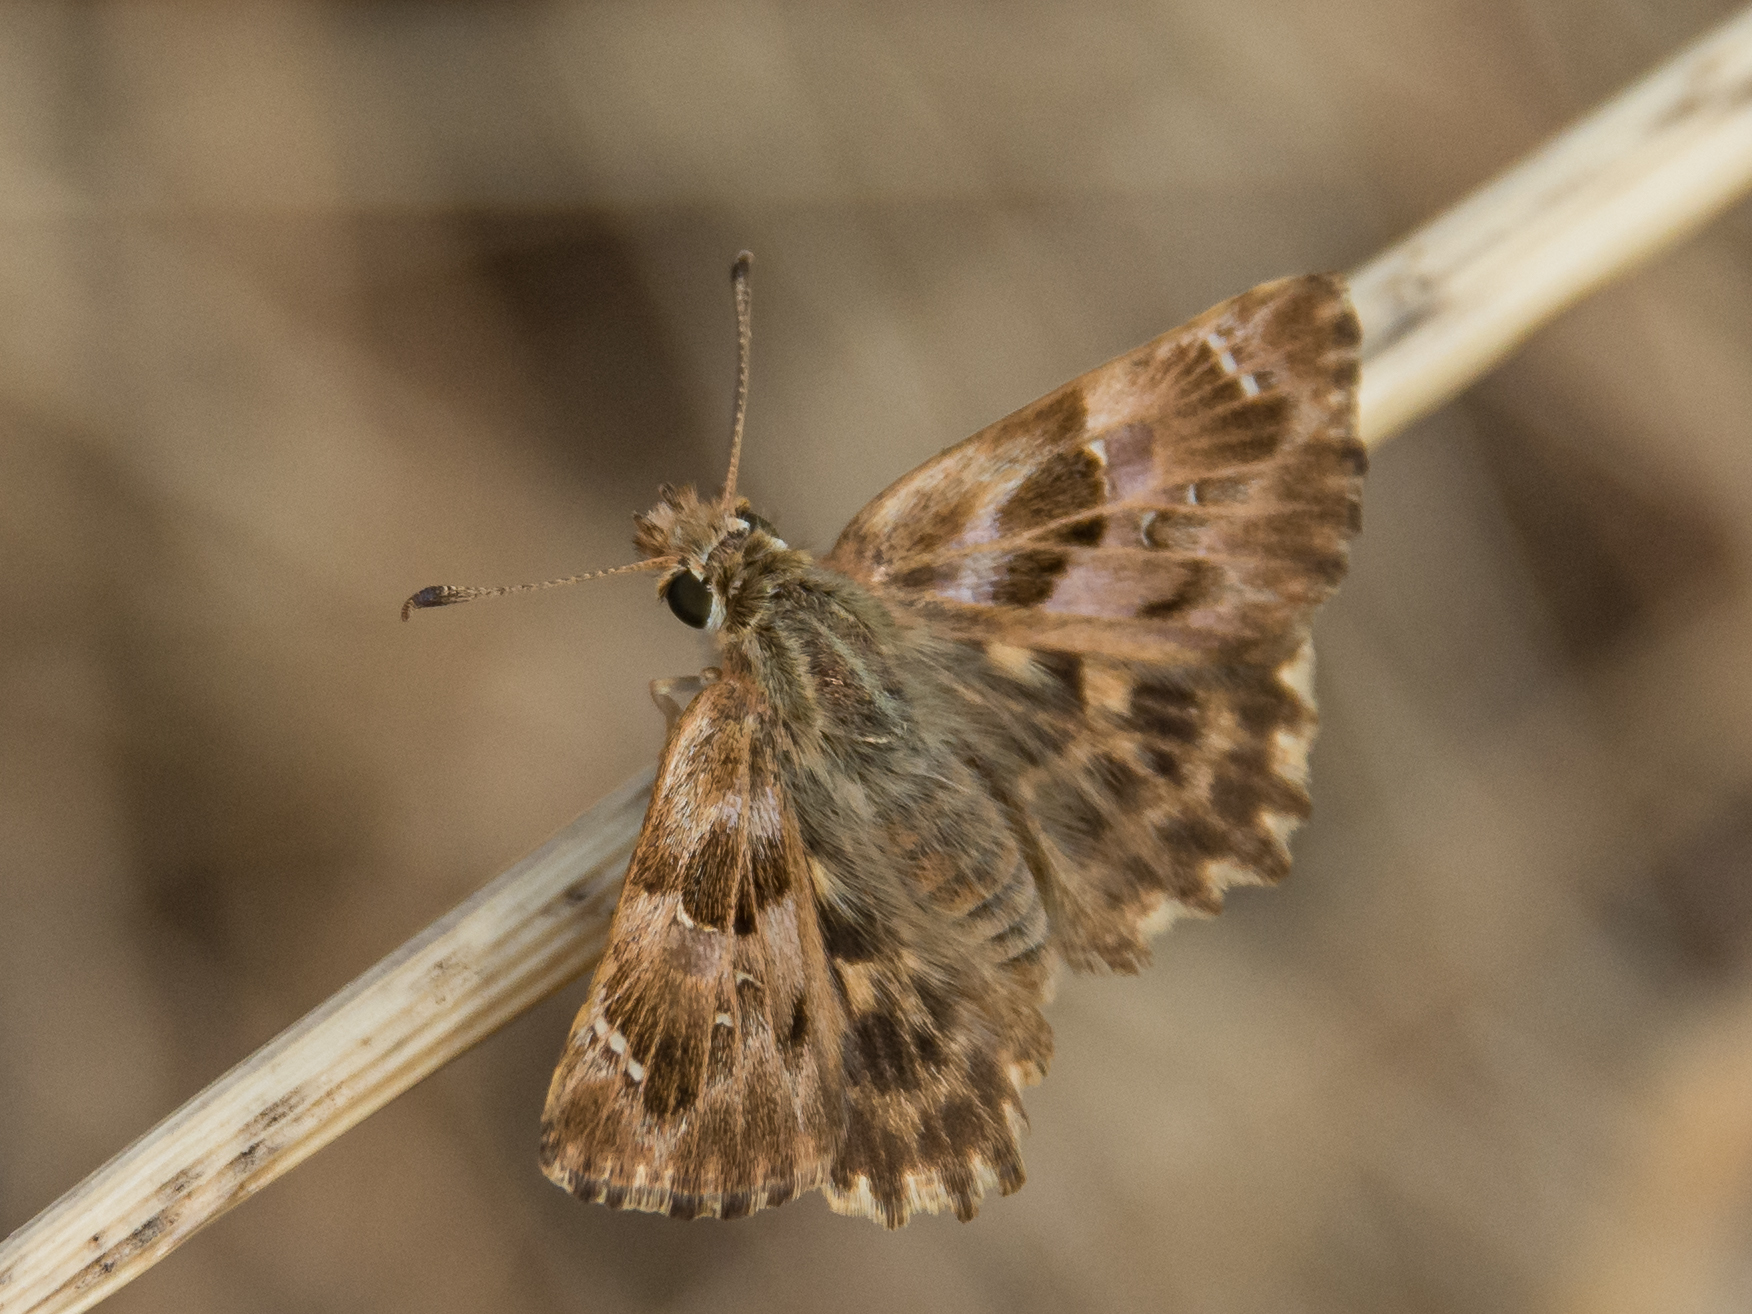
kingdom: Animalia
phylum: Arthropoda
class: Insecta
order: Lepidoptera
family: Hesperiidae
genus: Carcharodus
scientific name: Carcharodus alceae
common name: Mallow skipper
